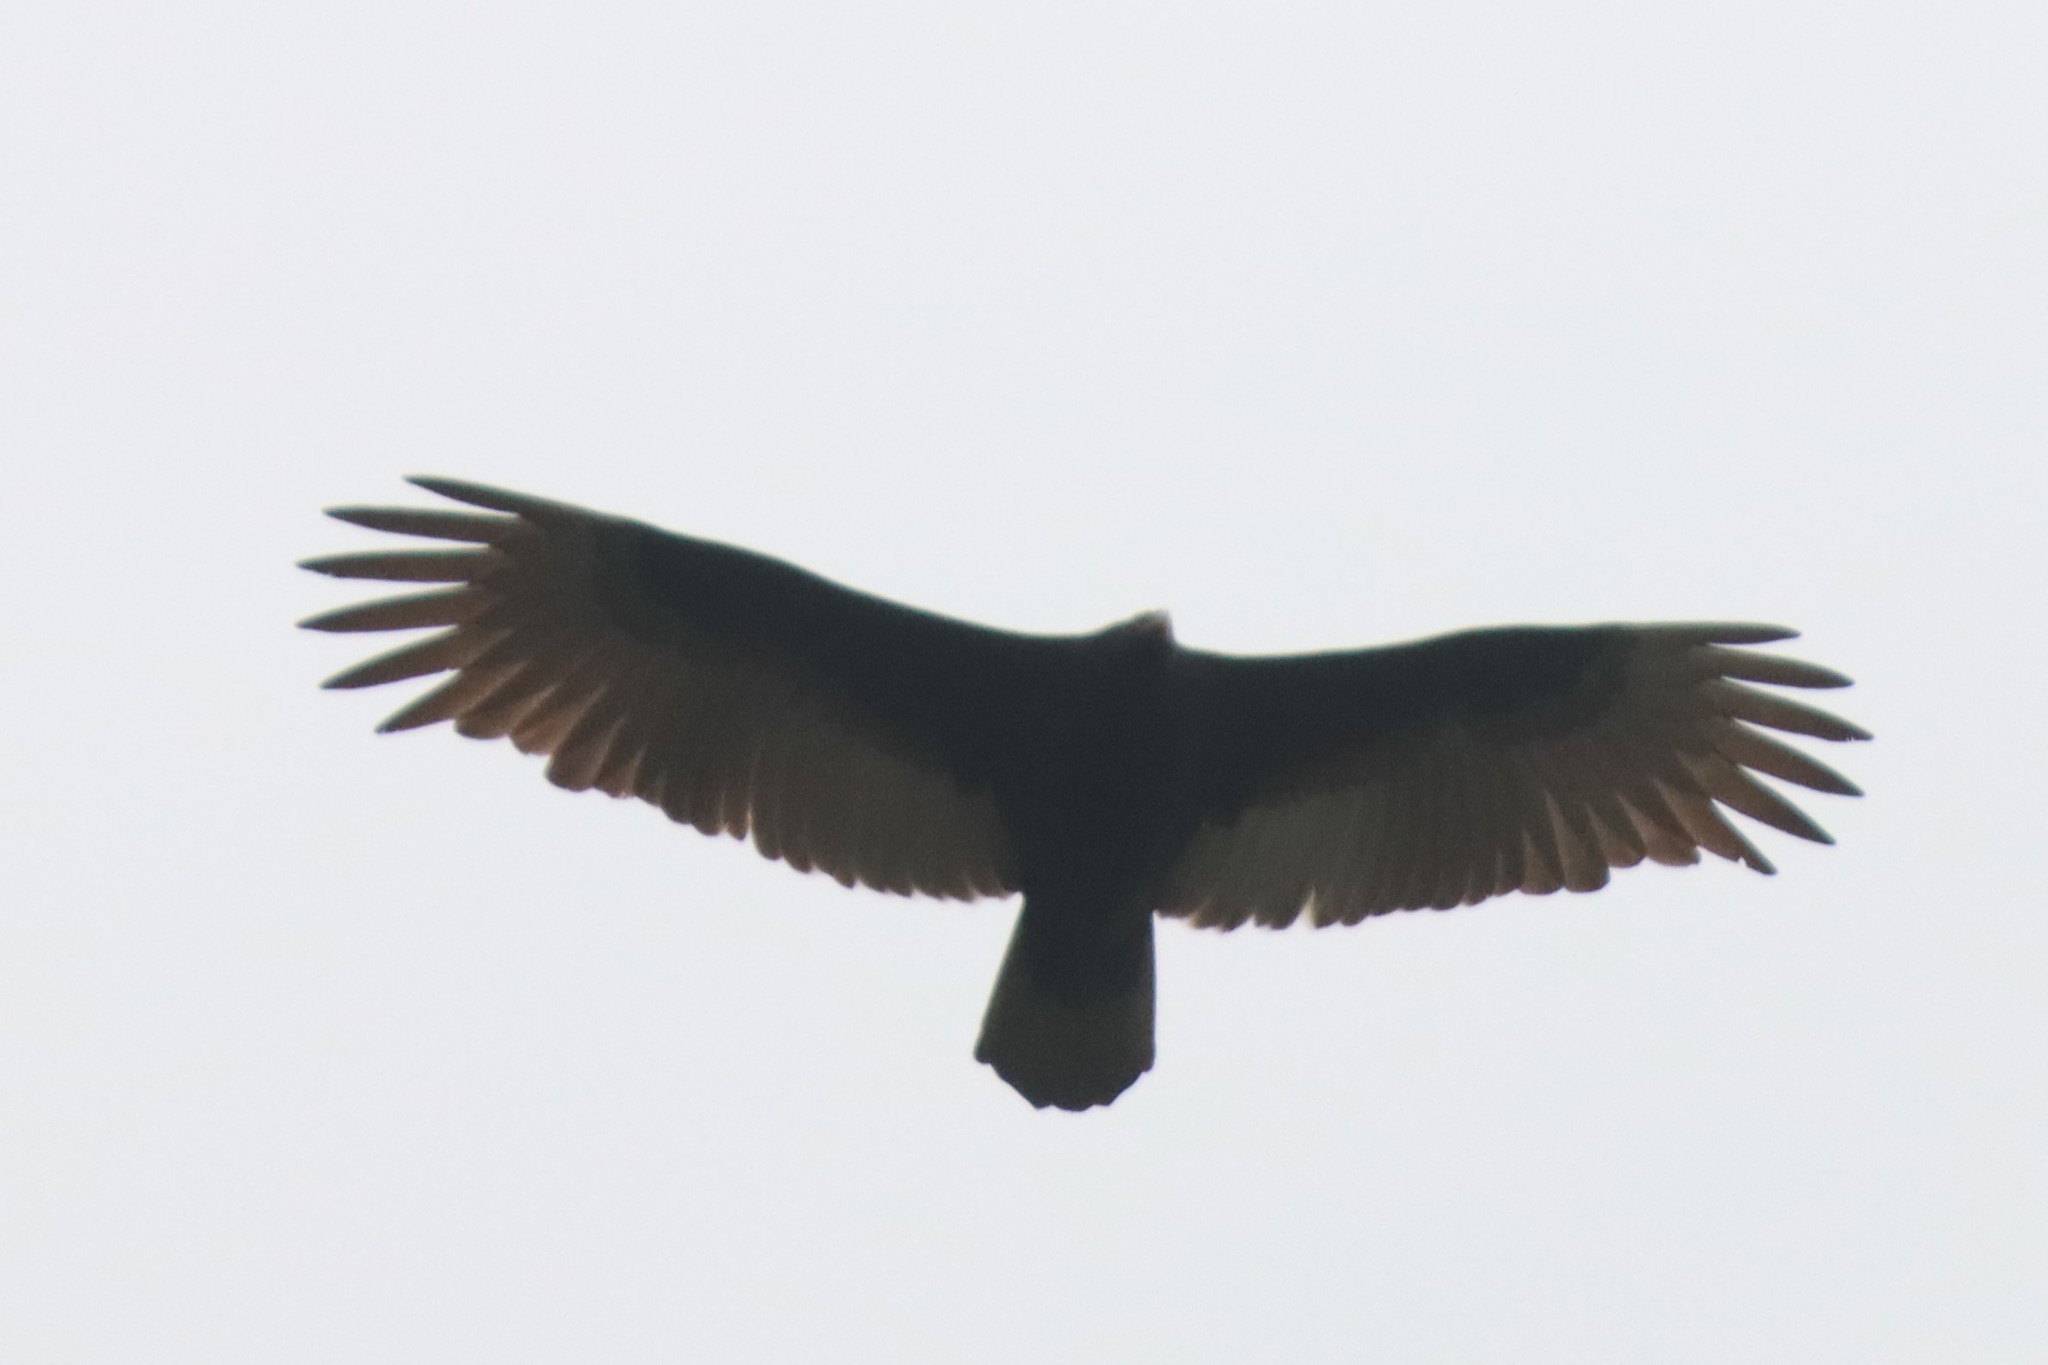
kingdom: Animalia
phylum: Chordata
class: Aves
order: Accipitriformes
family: Cathartidae
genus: Cathartes
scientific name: Cathartes aura
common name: Turkey vulture
